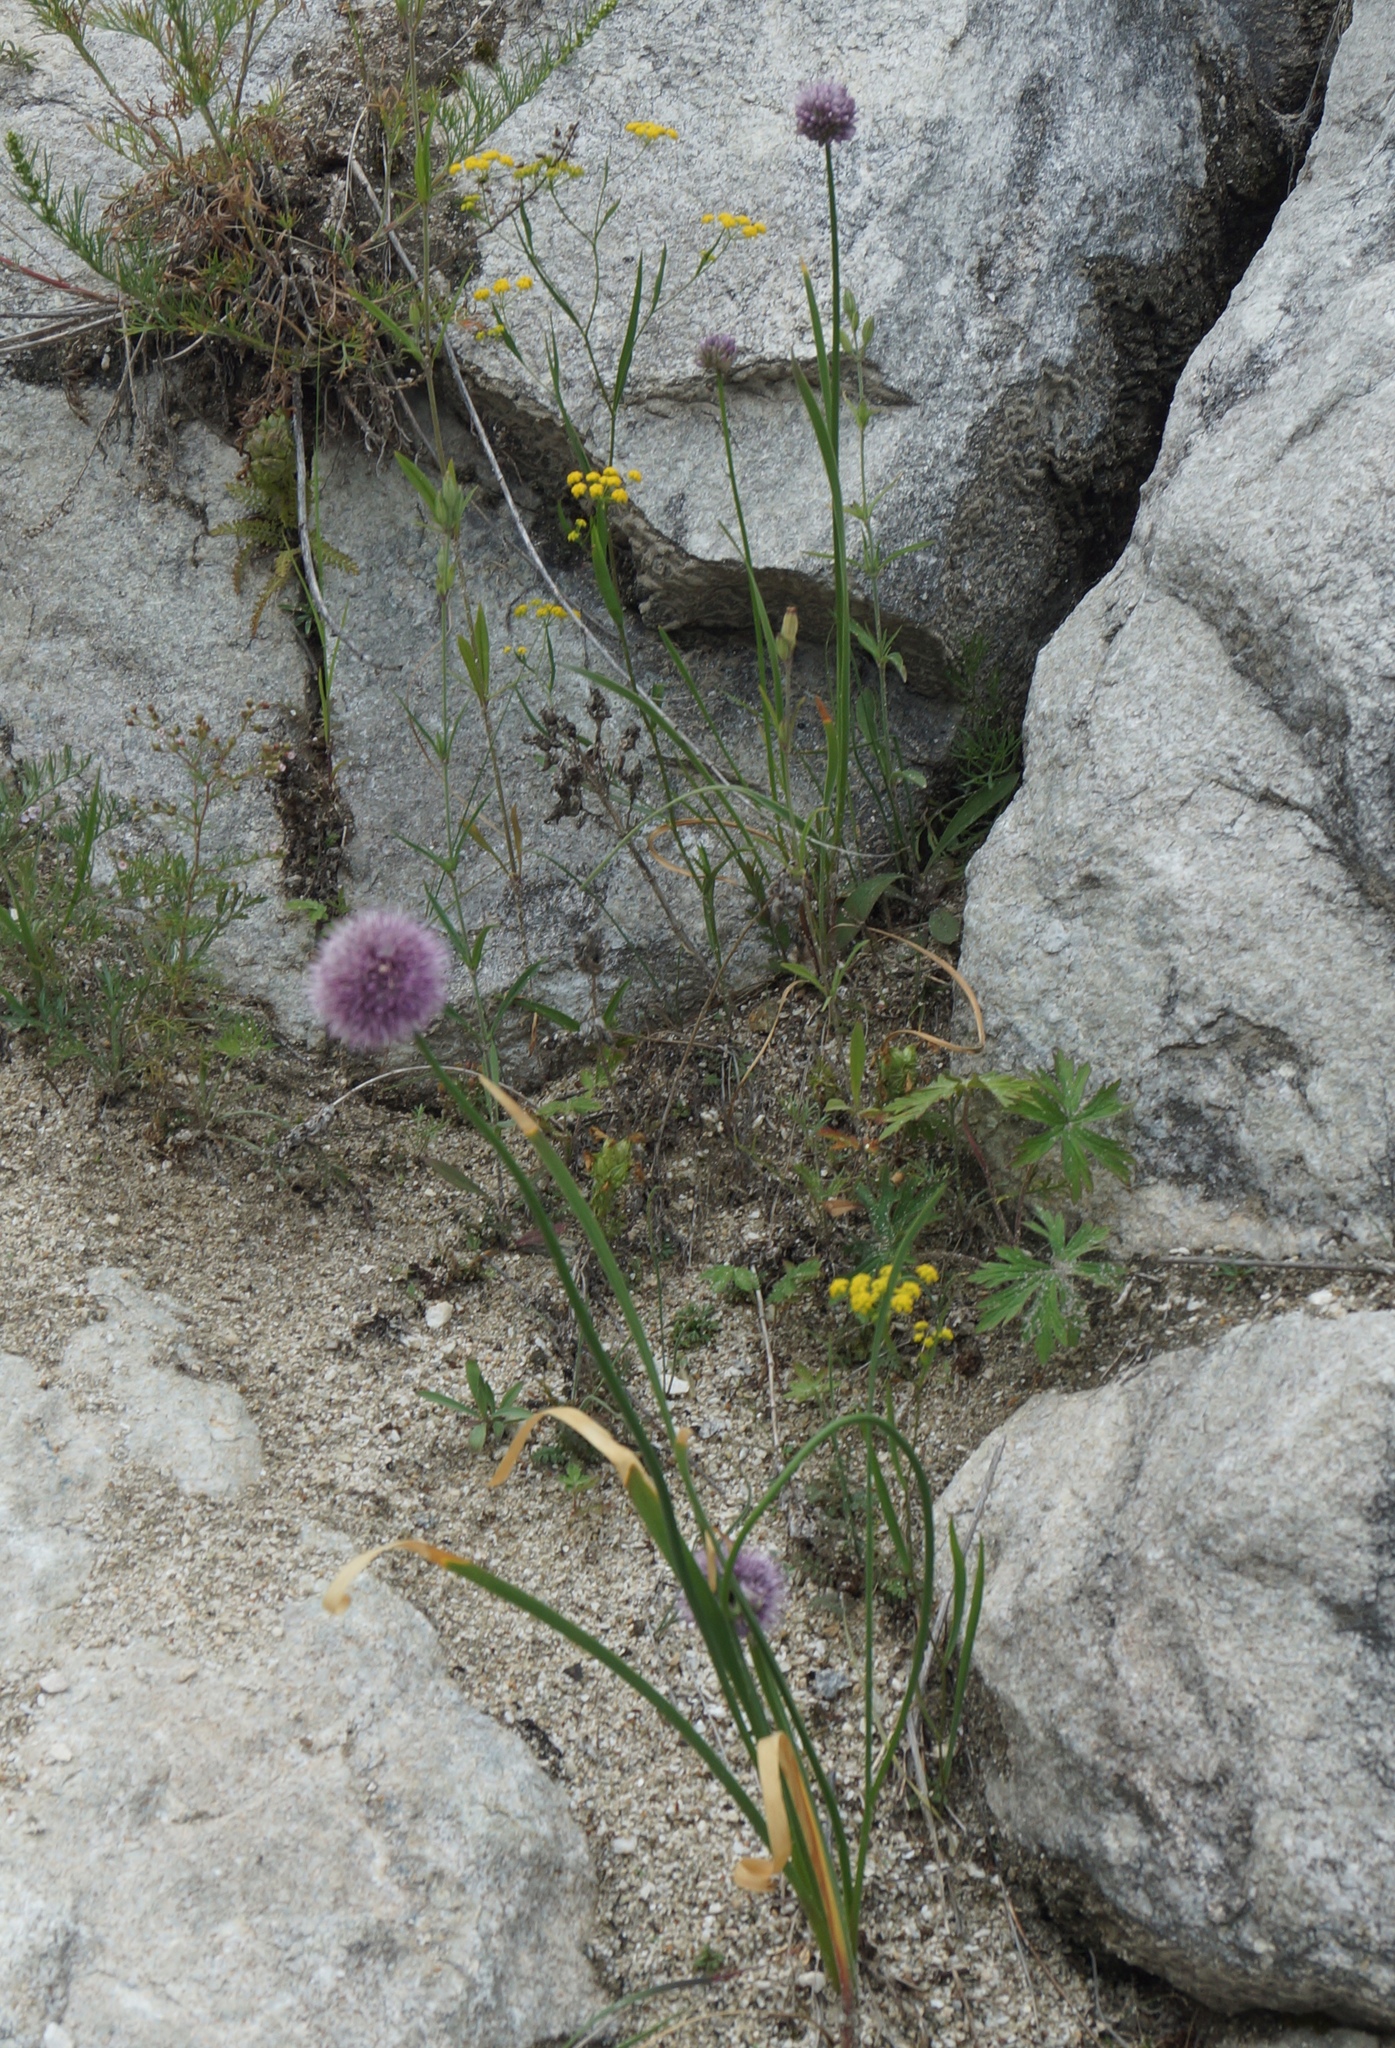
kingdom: Plantae
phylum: Tracheophyta
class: Magnoliopsida
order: Apiales
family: Apiaceae
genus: Bupleurum
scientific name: Bupleurum scorzonerifolium
